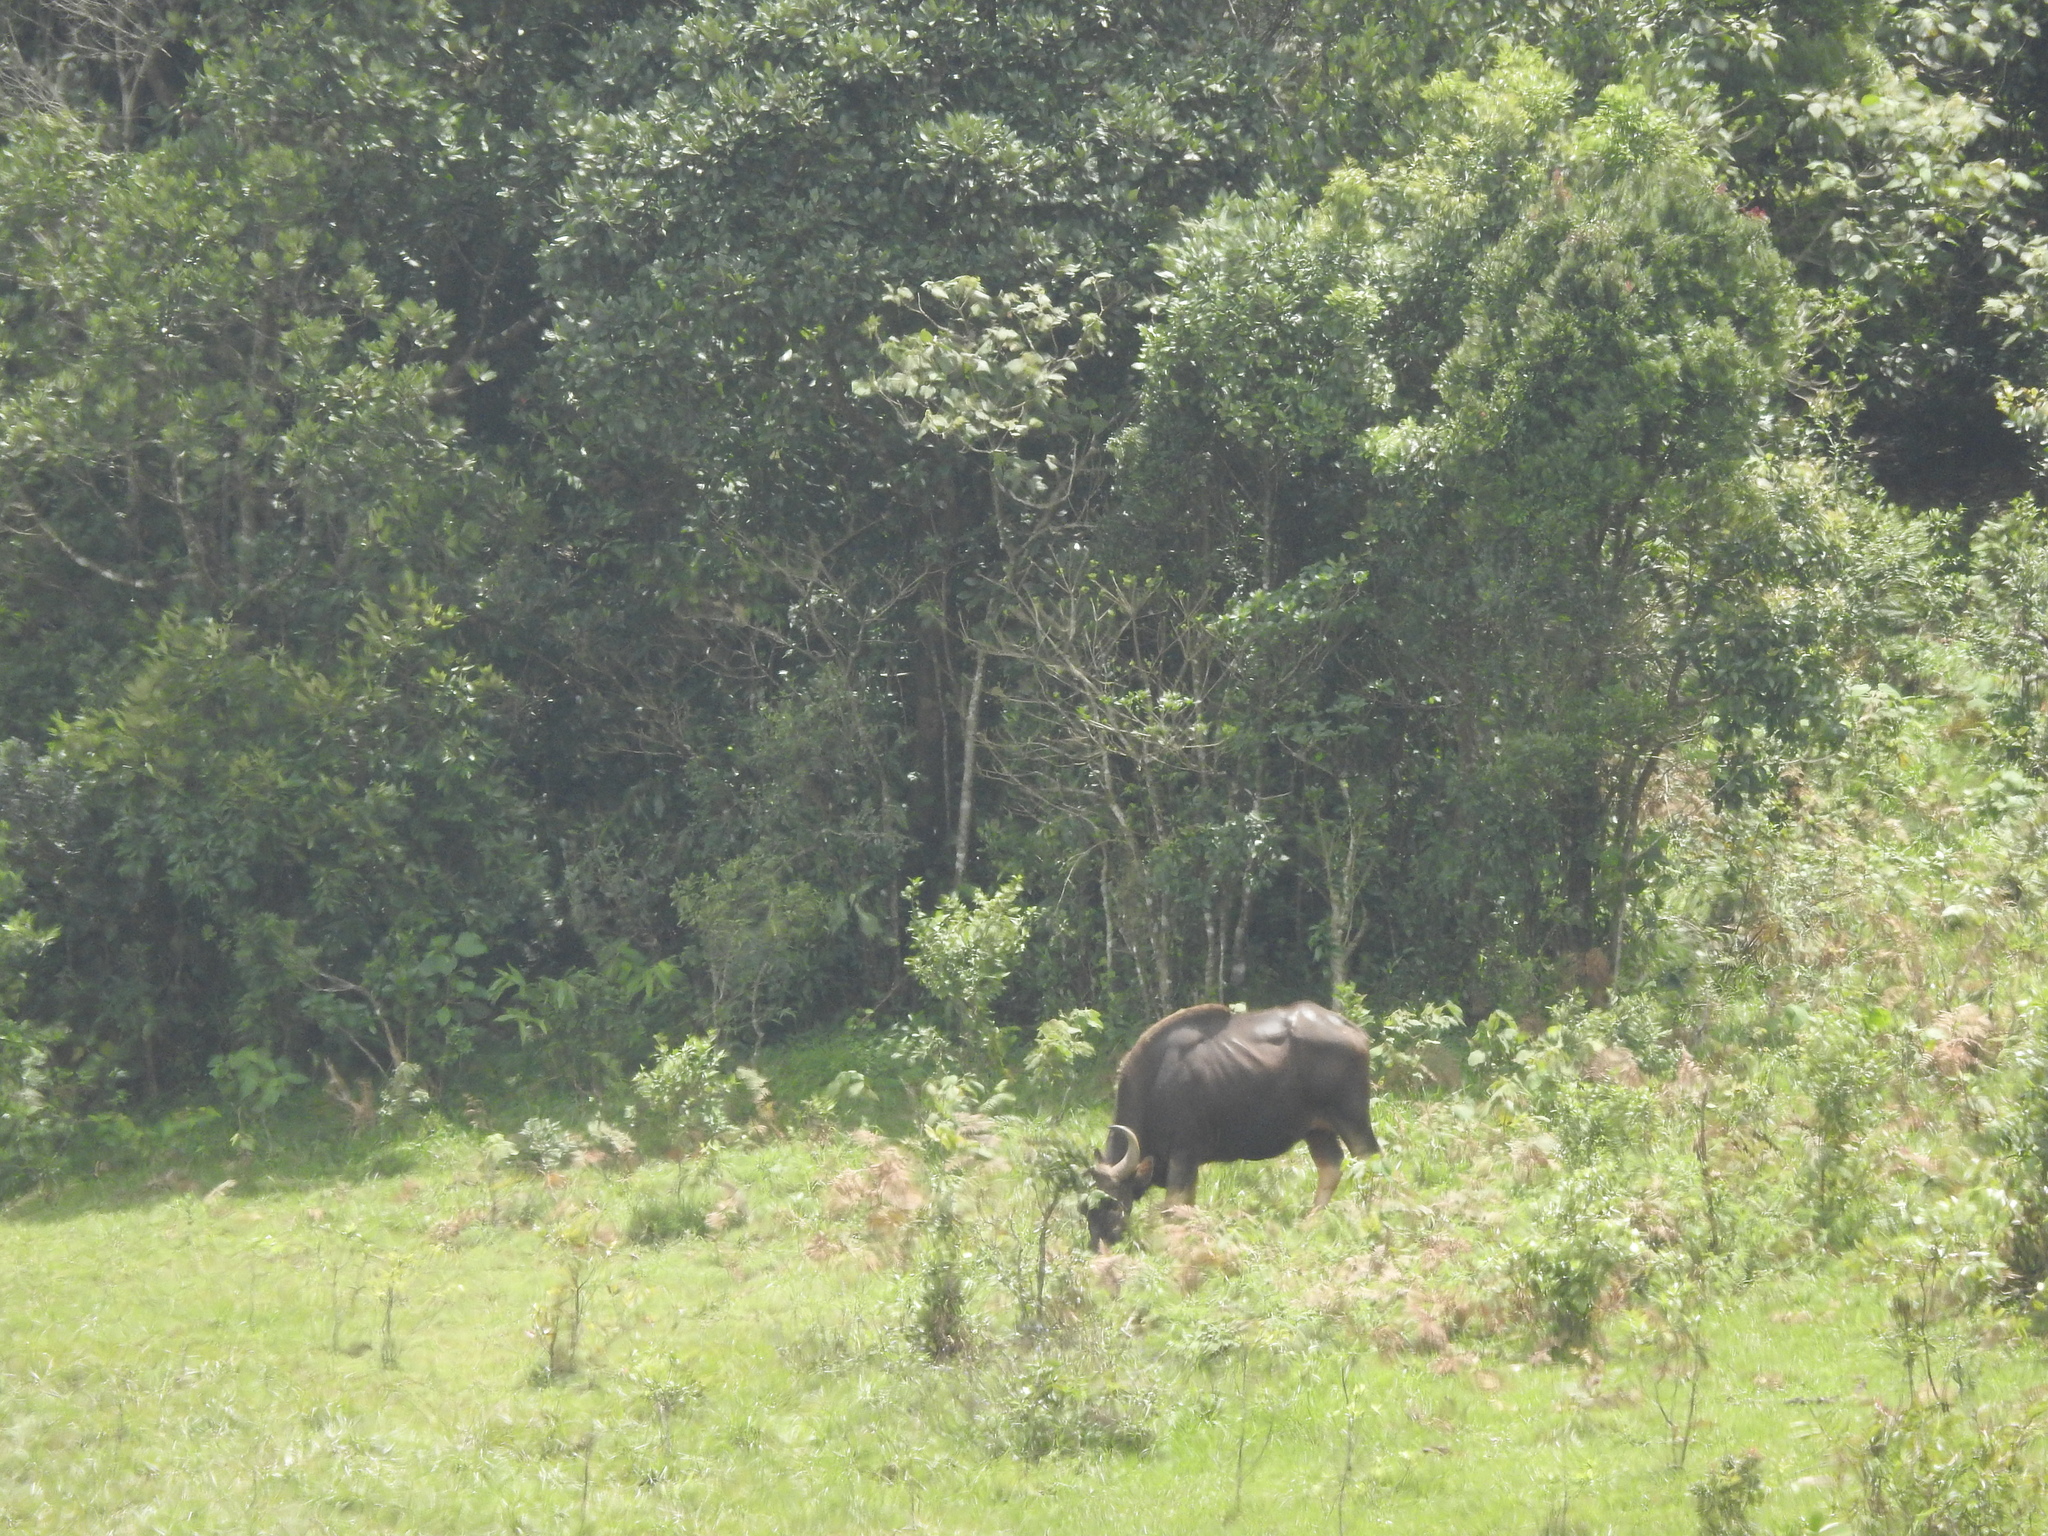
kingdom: Animalia
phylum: Chordata
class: Mammalia
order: Artiodactyla
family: Bovidae
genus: Bos
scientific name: Bos frontalis
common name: Gaur
